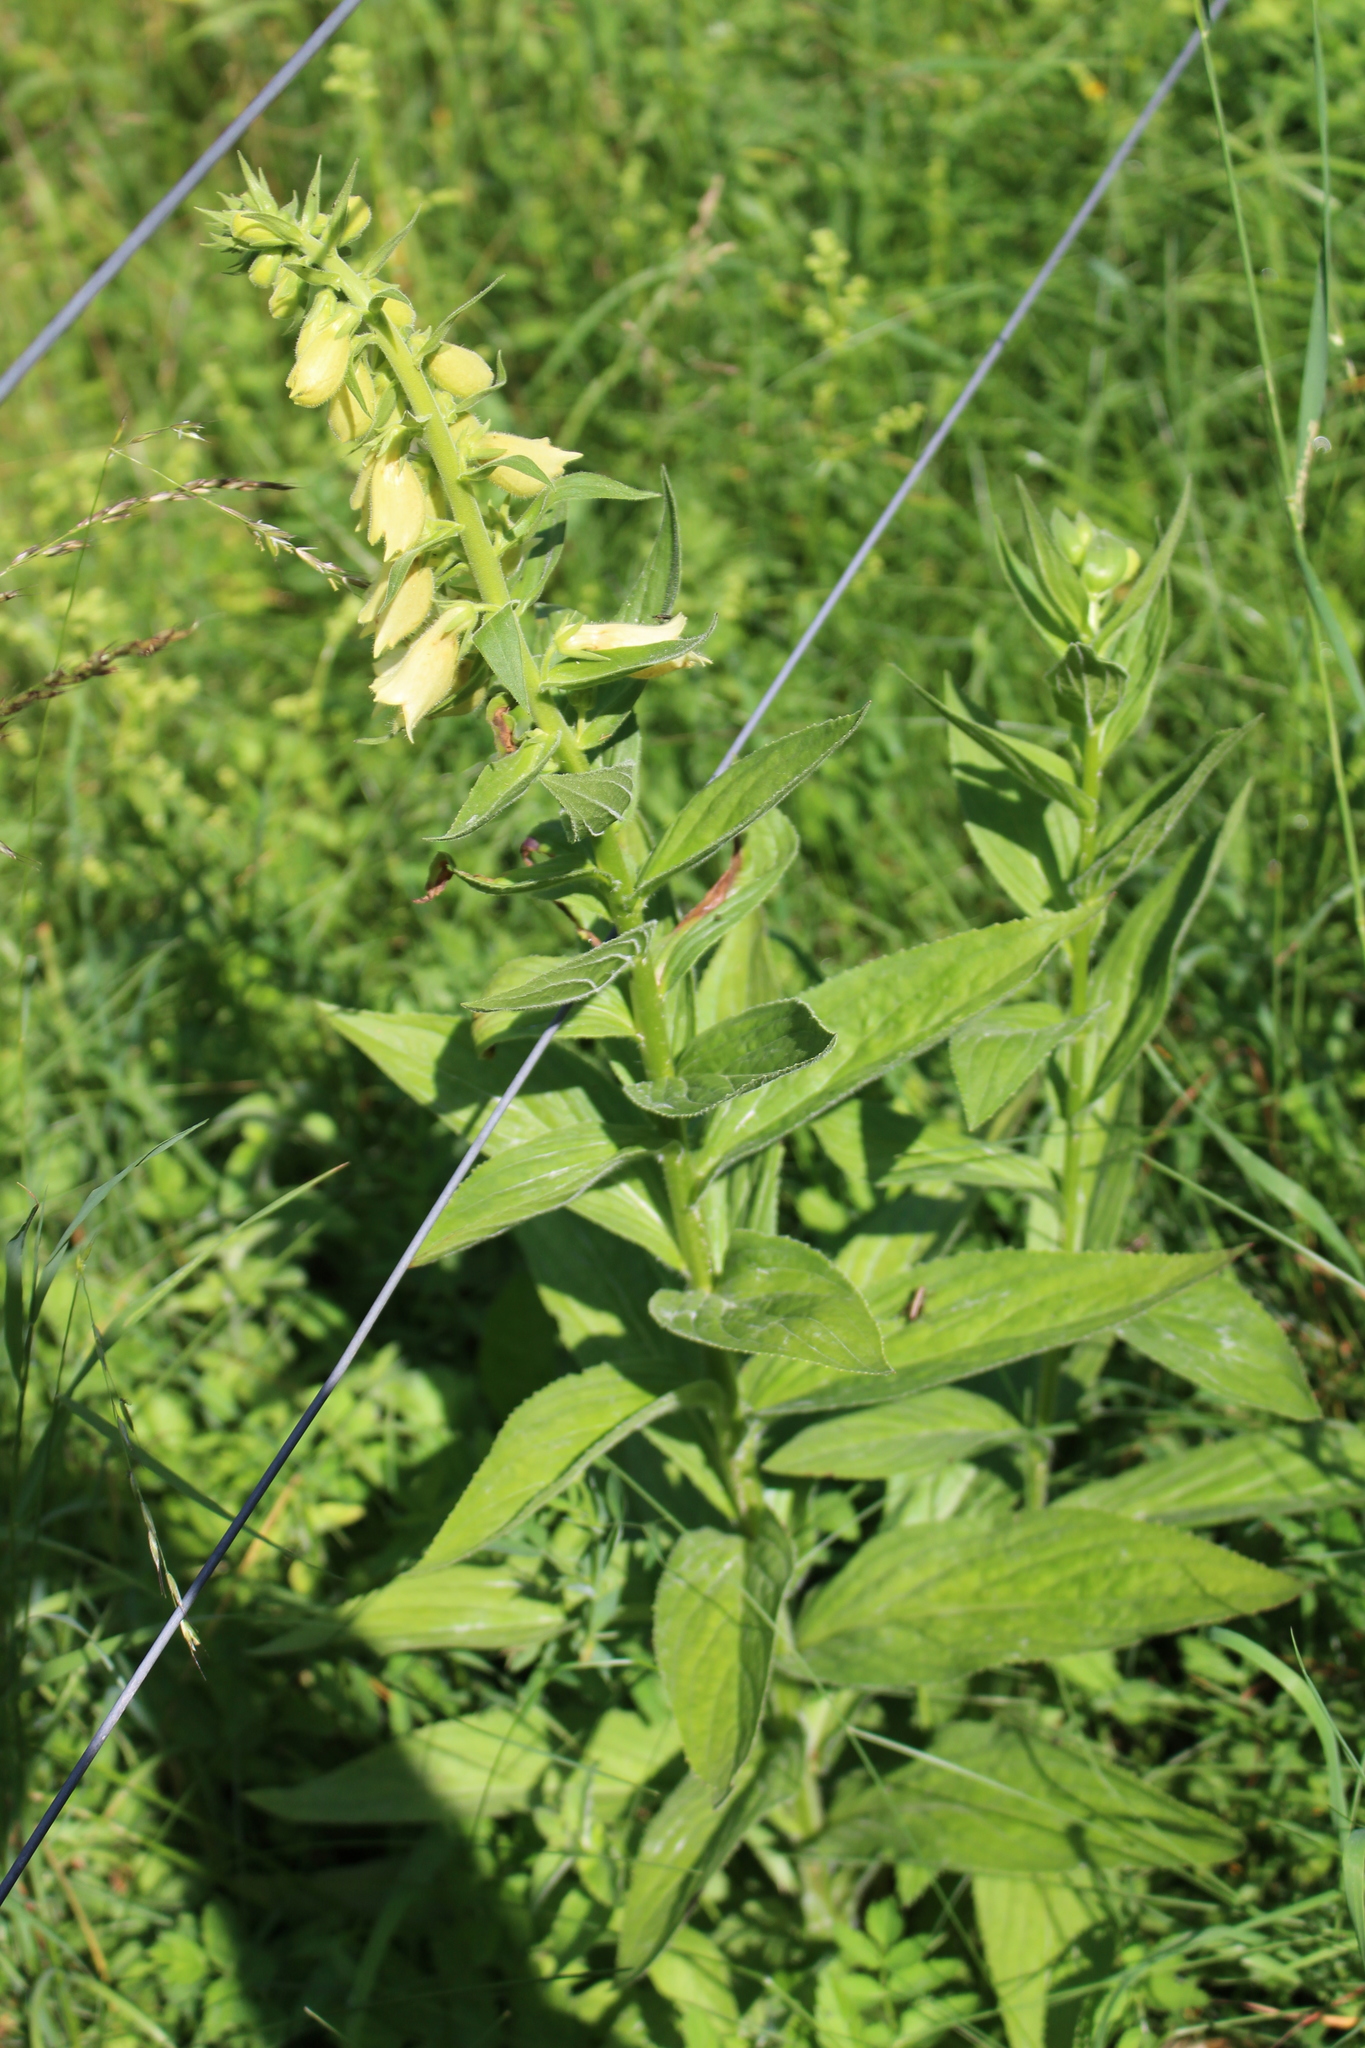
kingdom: Plantae
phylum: Tracheophyta
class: Magnoliopsida
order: Lamiales
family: Plantaginaceae
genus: Digitalis
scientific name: Digitalis grandiflora
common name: Yellow foxglove
